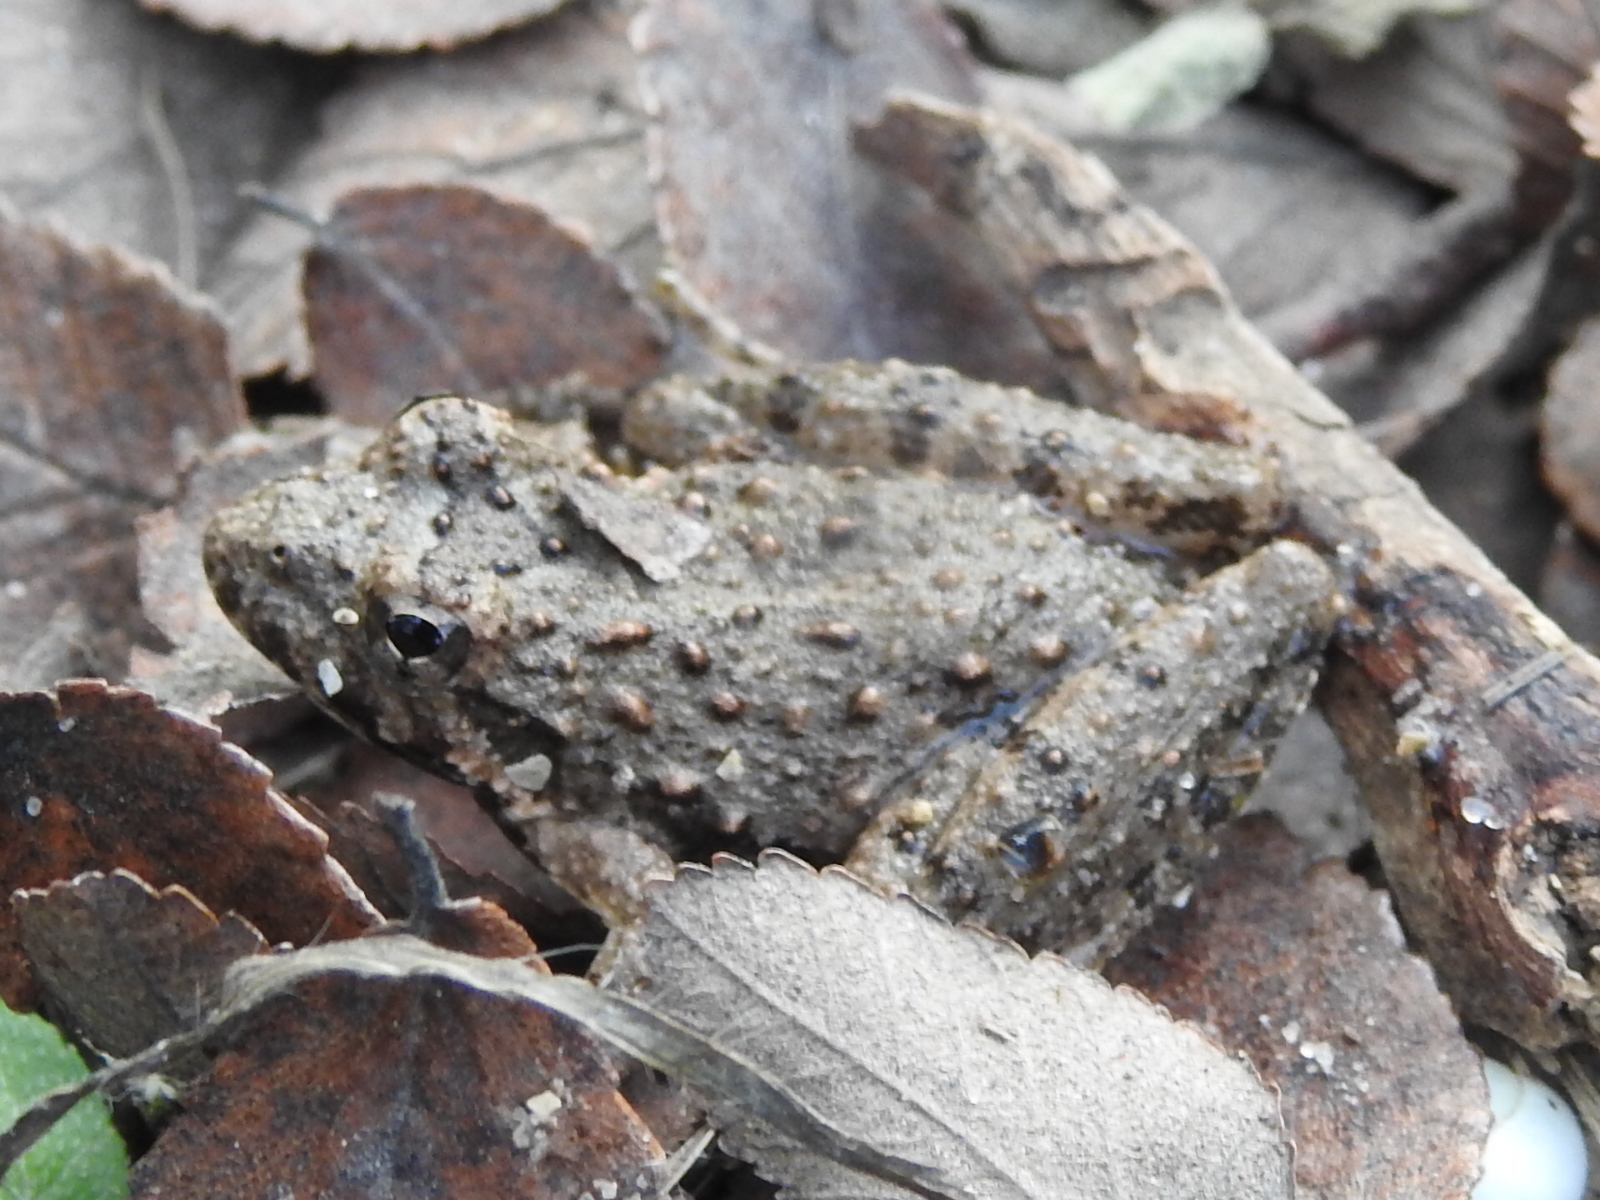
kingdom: Animalia
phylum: Chordata
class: Amphibia
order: Anura
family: Hylidae
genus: Acris
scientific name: Acris blanchardi
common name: Blanchard's cricket frog
